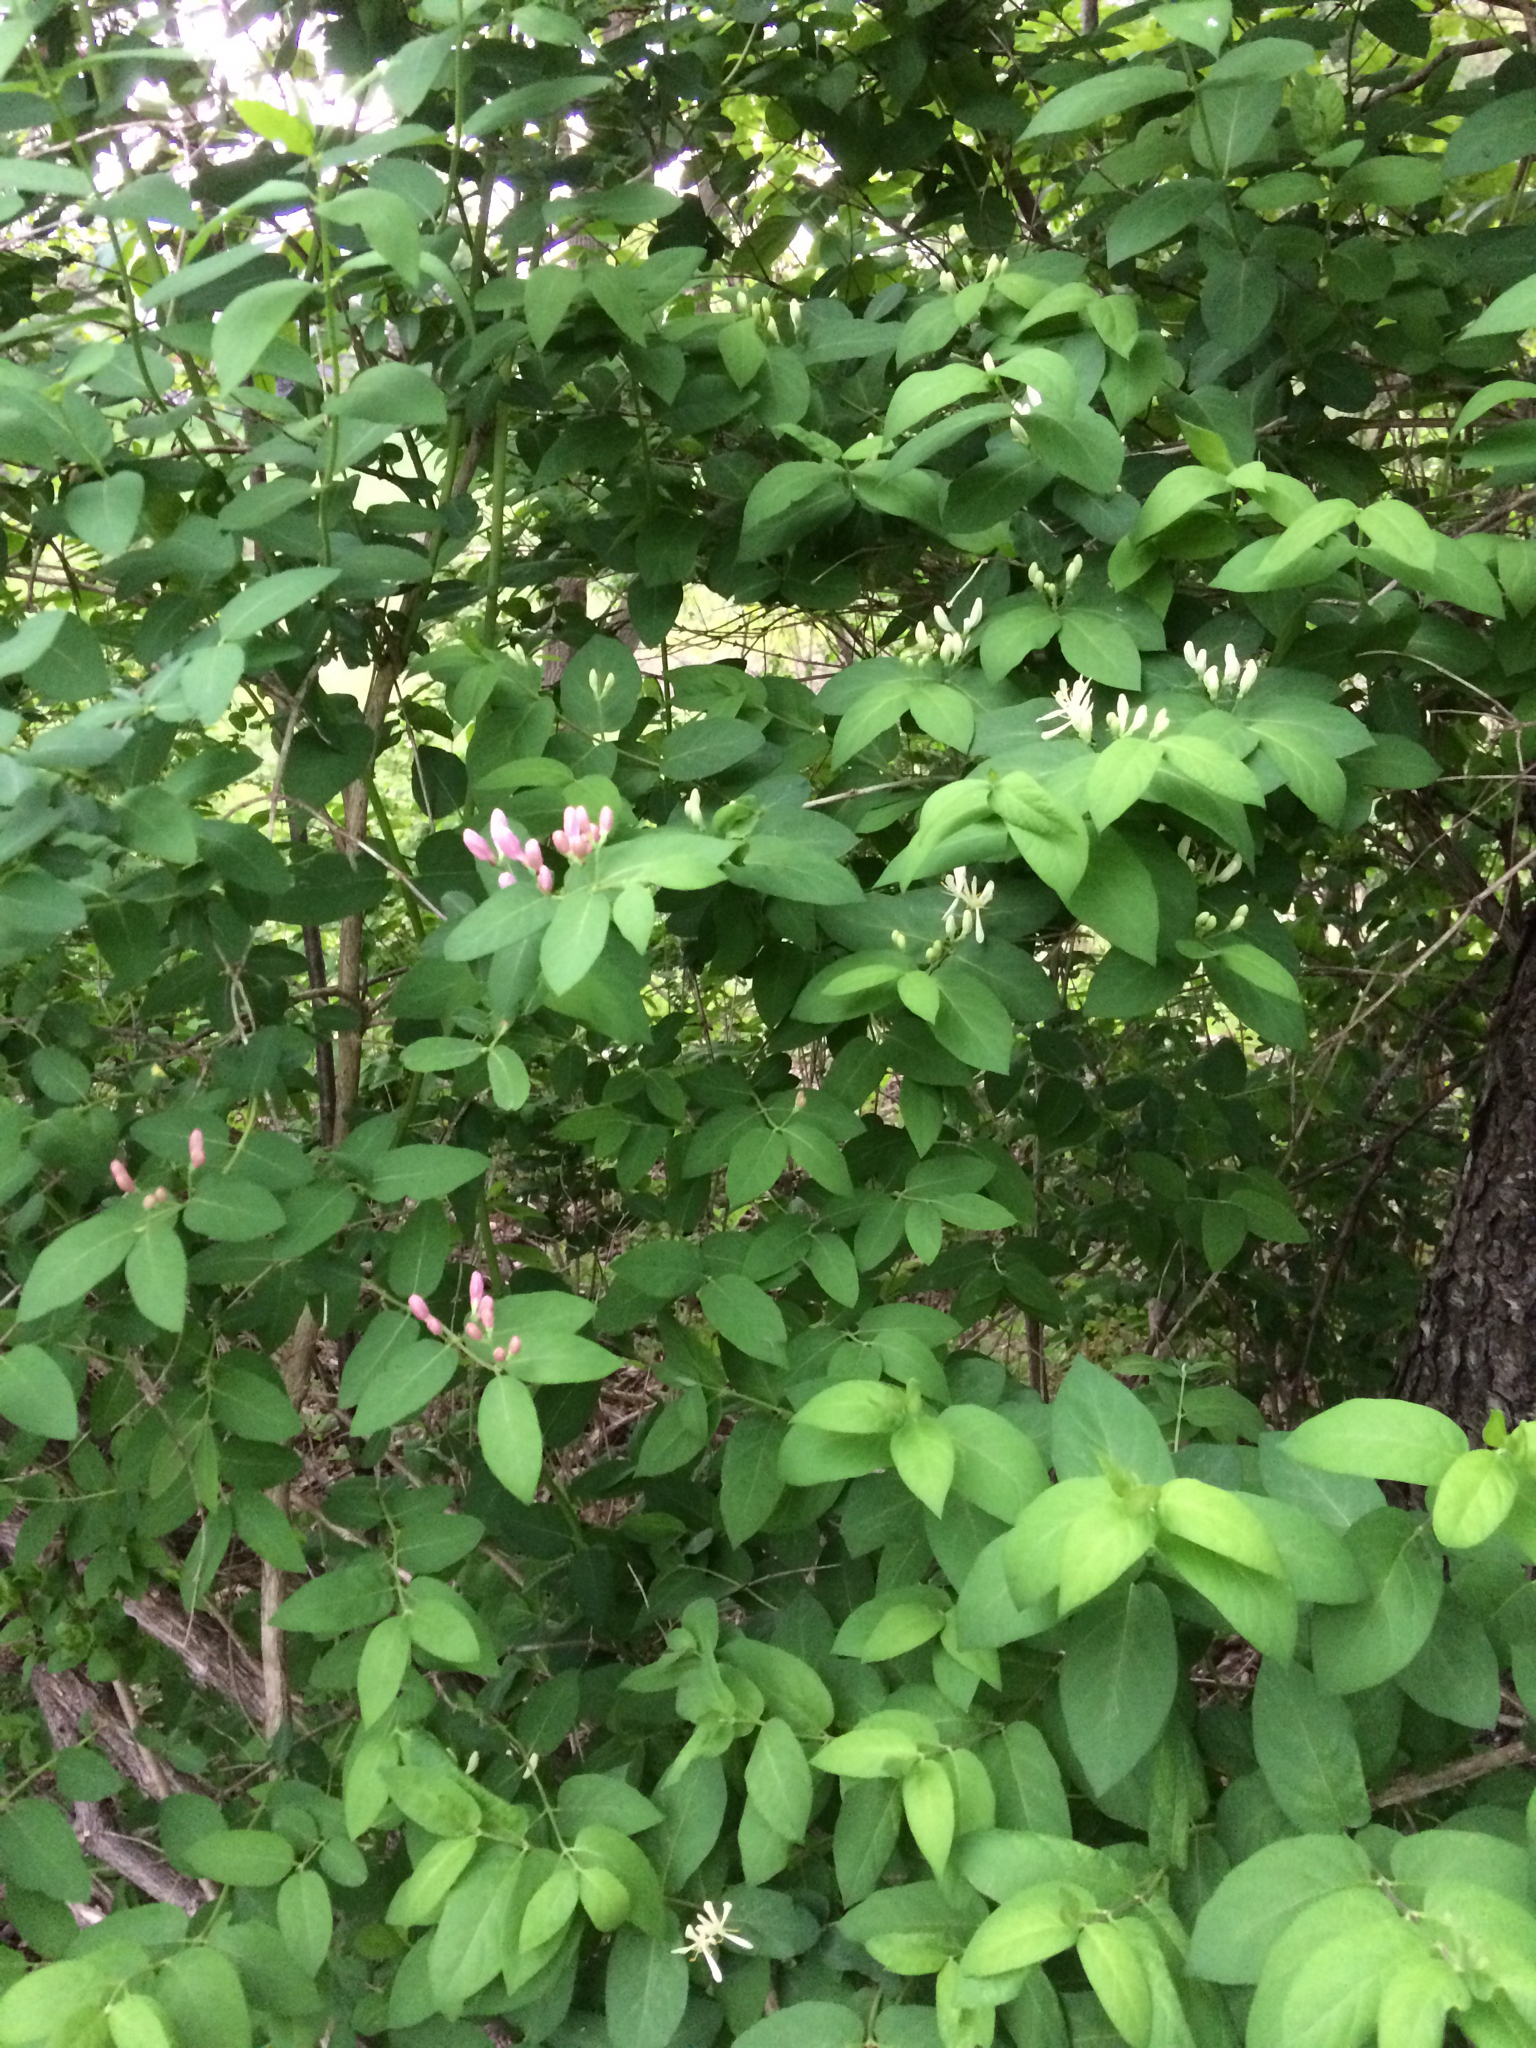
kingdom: Plantae
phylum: Tracheophyta
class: Magnoliopsida
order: Dipsacales
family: Caprifoliaceae
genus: Lonicera
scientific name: Lonicera tatarica
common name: Tatarian honeysuckle
